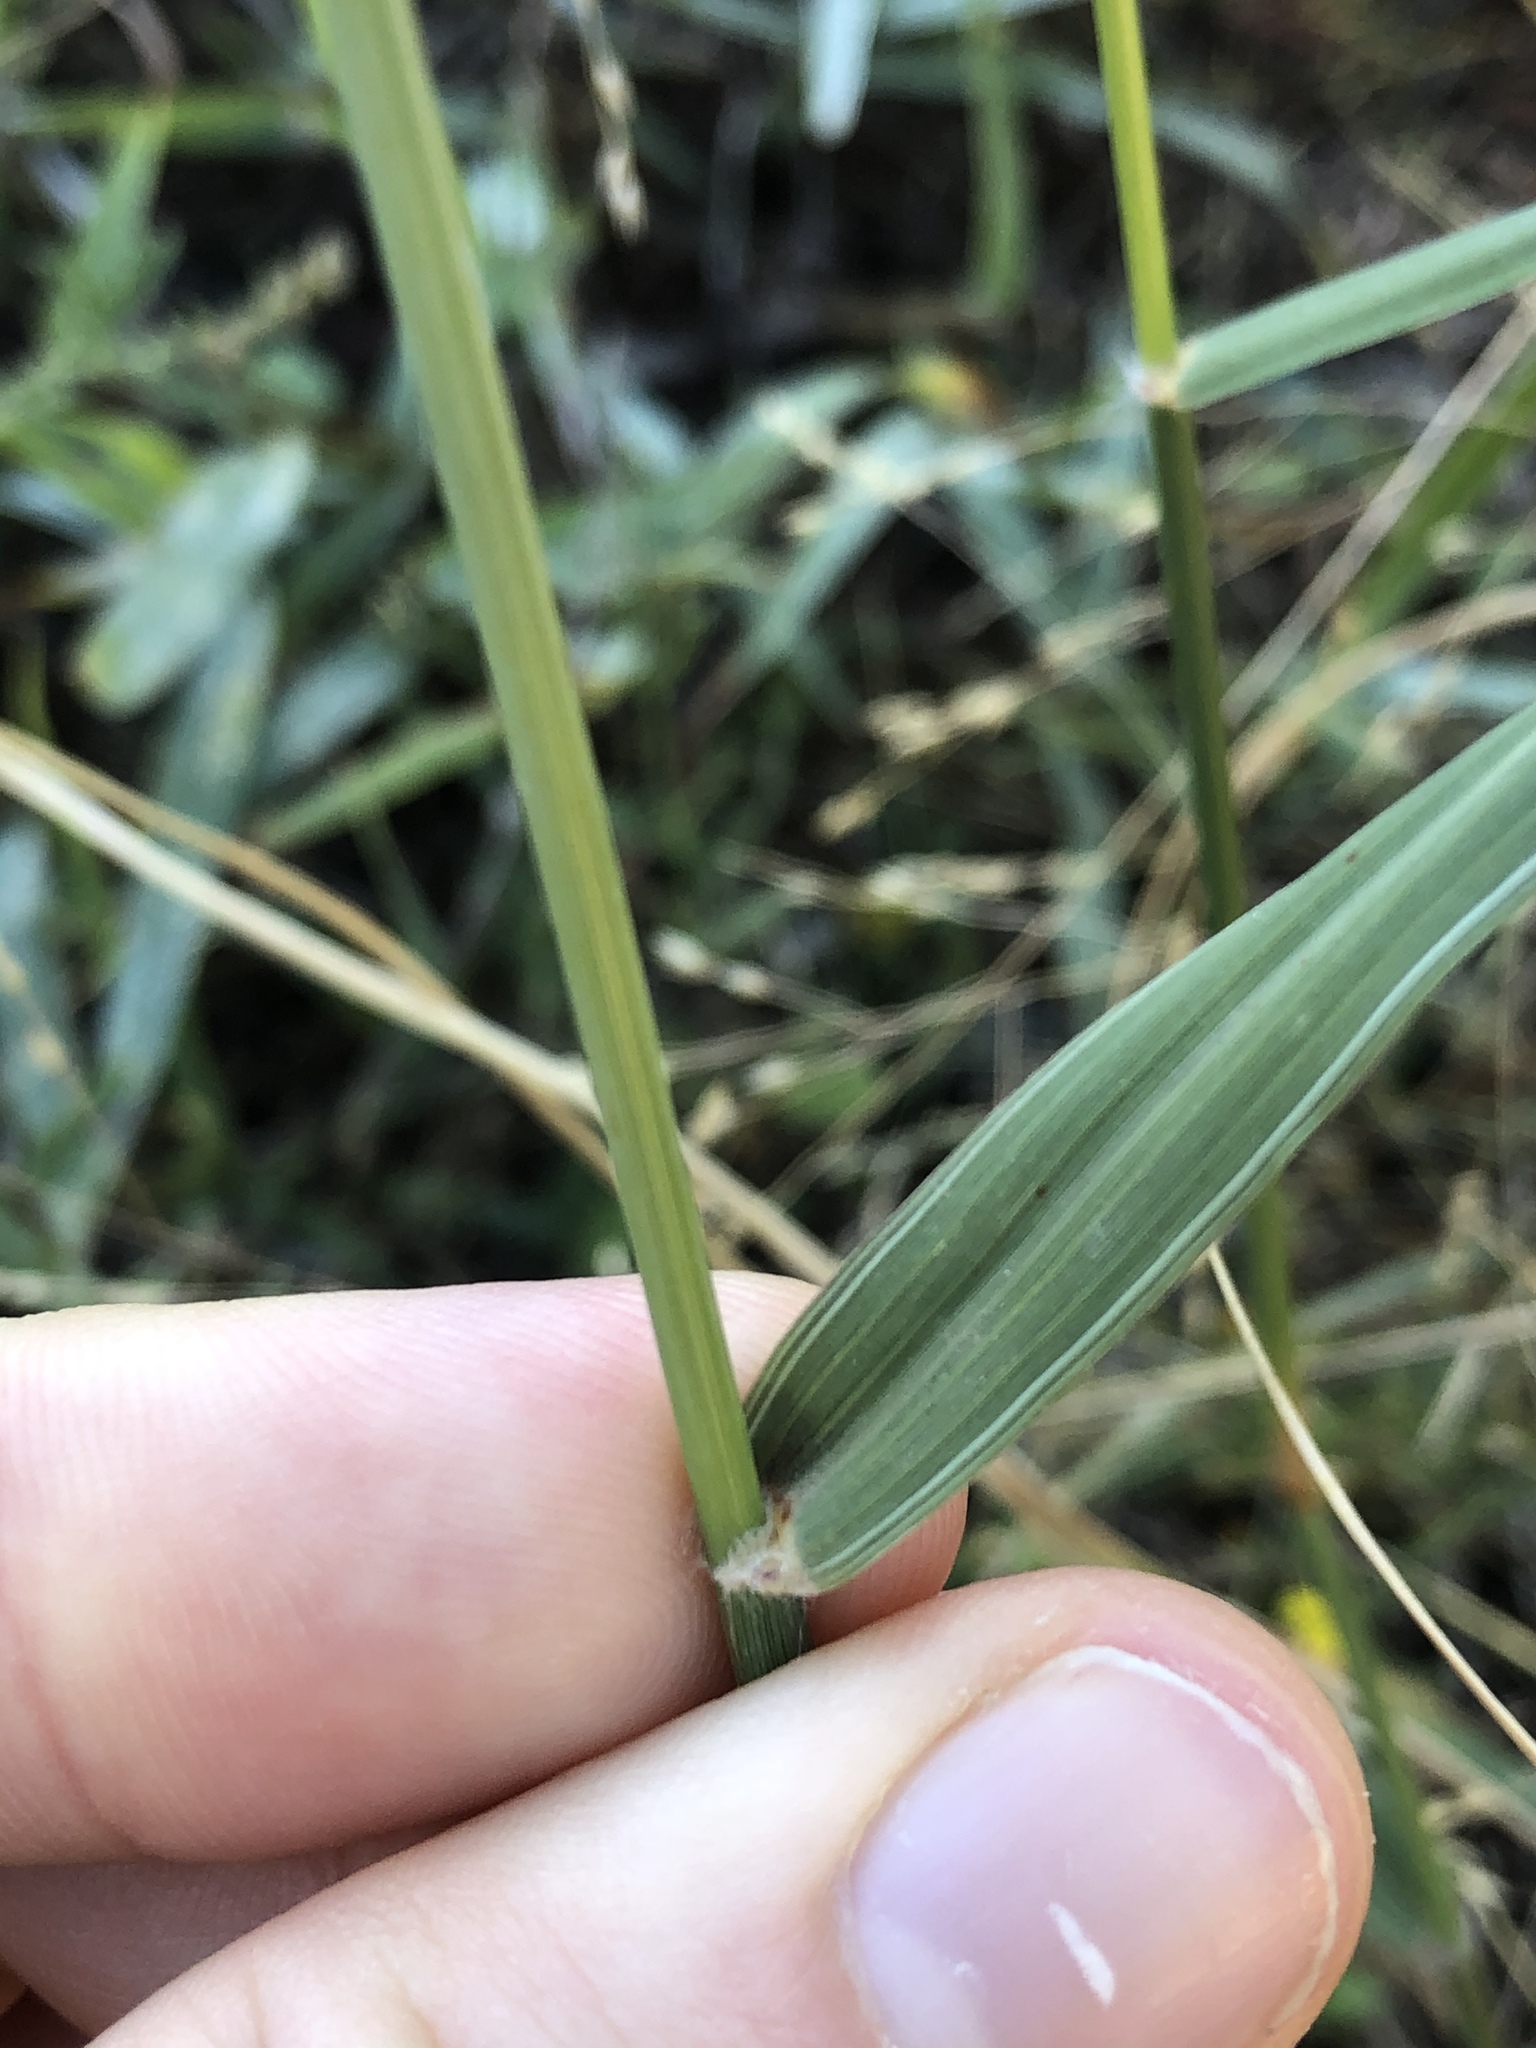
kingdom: Plantae
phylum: Tracheophyta
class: Liliopsida
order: Poales
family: Poaceae
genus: Eragrostis
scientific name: Eragrostis superba
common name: Wilman lovegrass
